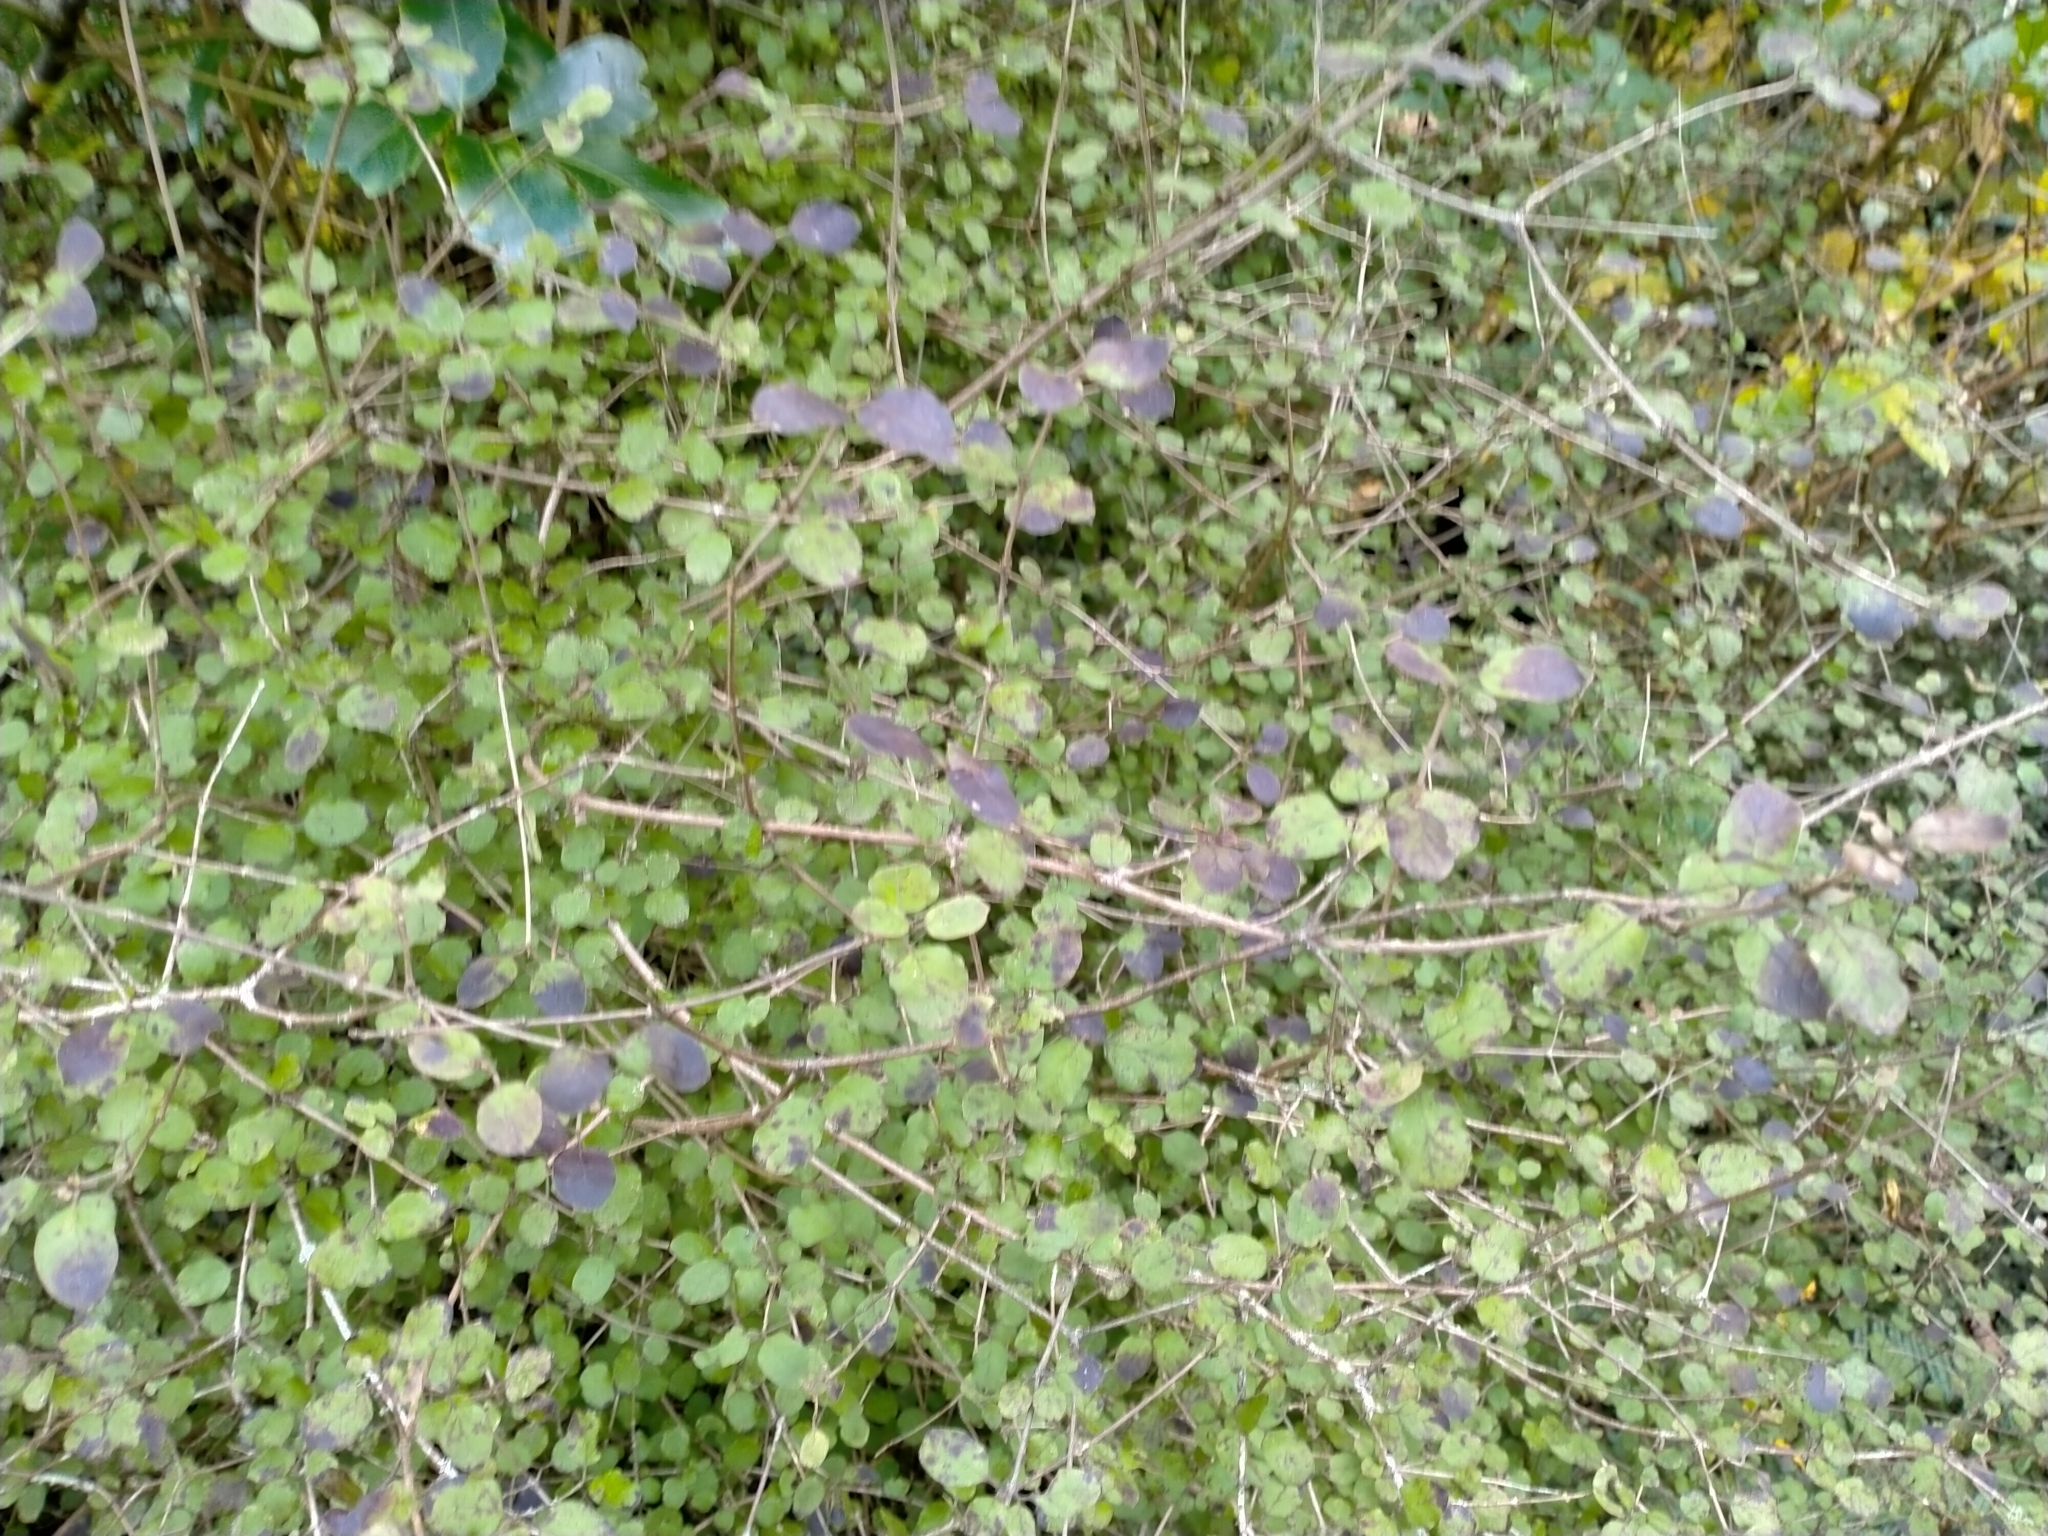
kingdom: Plantae
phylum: Tracheophyta
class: Magnoliopsida
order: Gentianales
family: Rubiaceae
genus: Coprosma
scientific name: Coprosma rotundifolia
